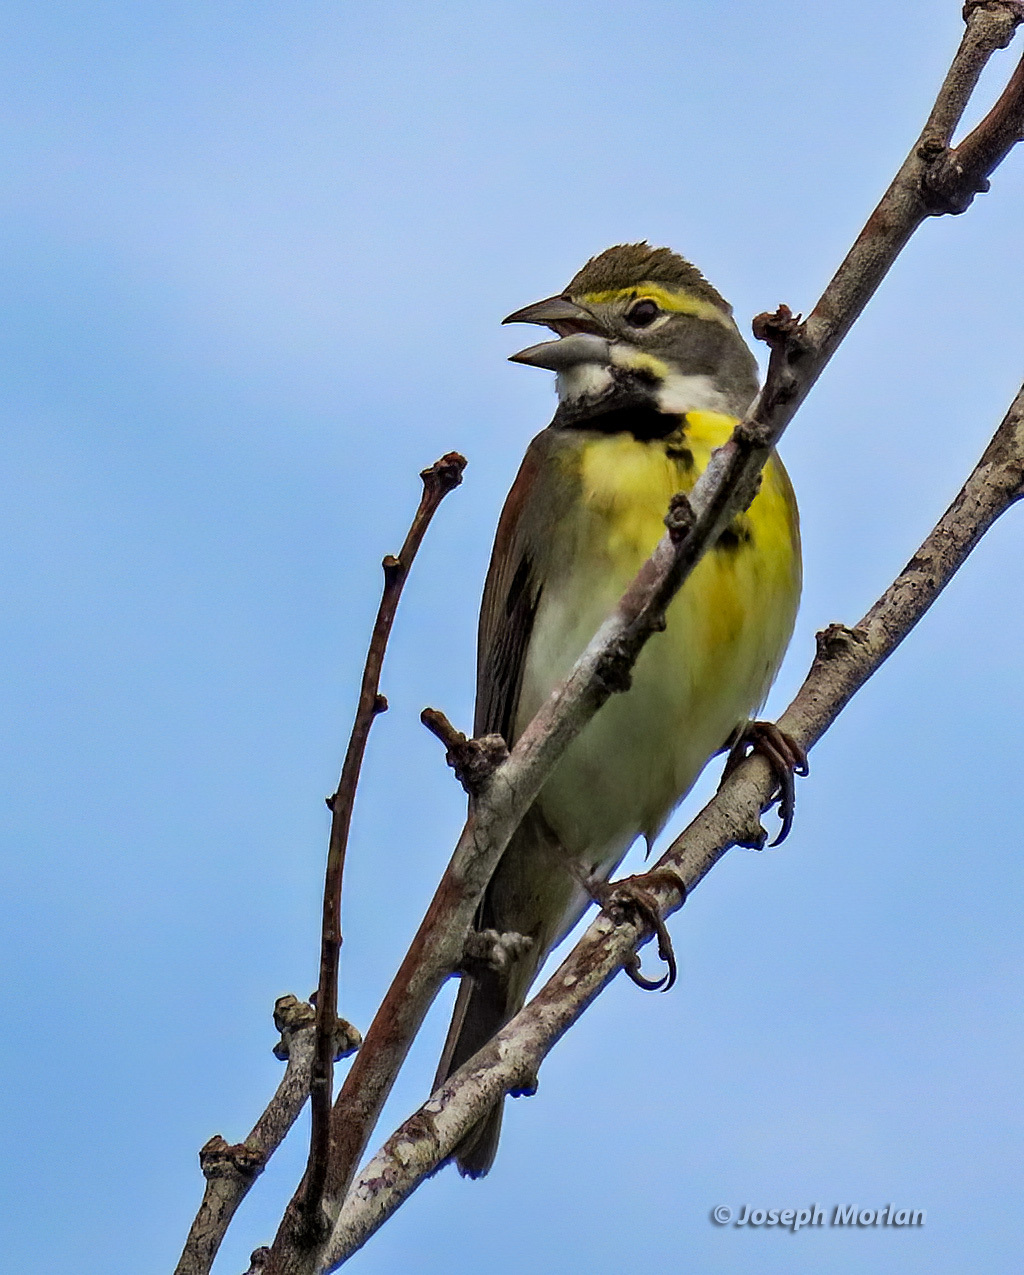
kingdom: Animalia
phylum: Chordata
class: Aves
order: Passeriformes
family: Cardinalidae
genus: Spiza
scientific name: Spiza americana
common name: Dickcissel
